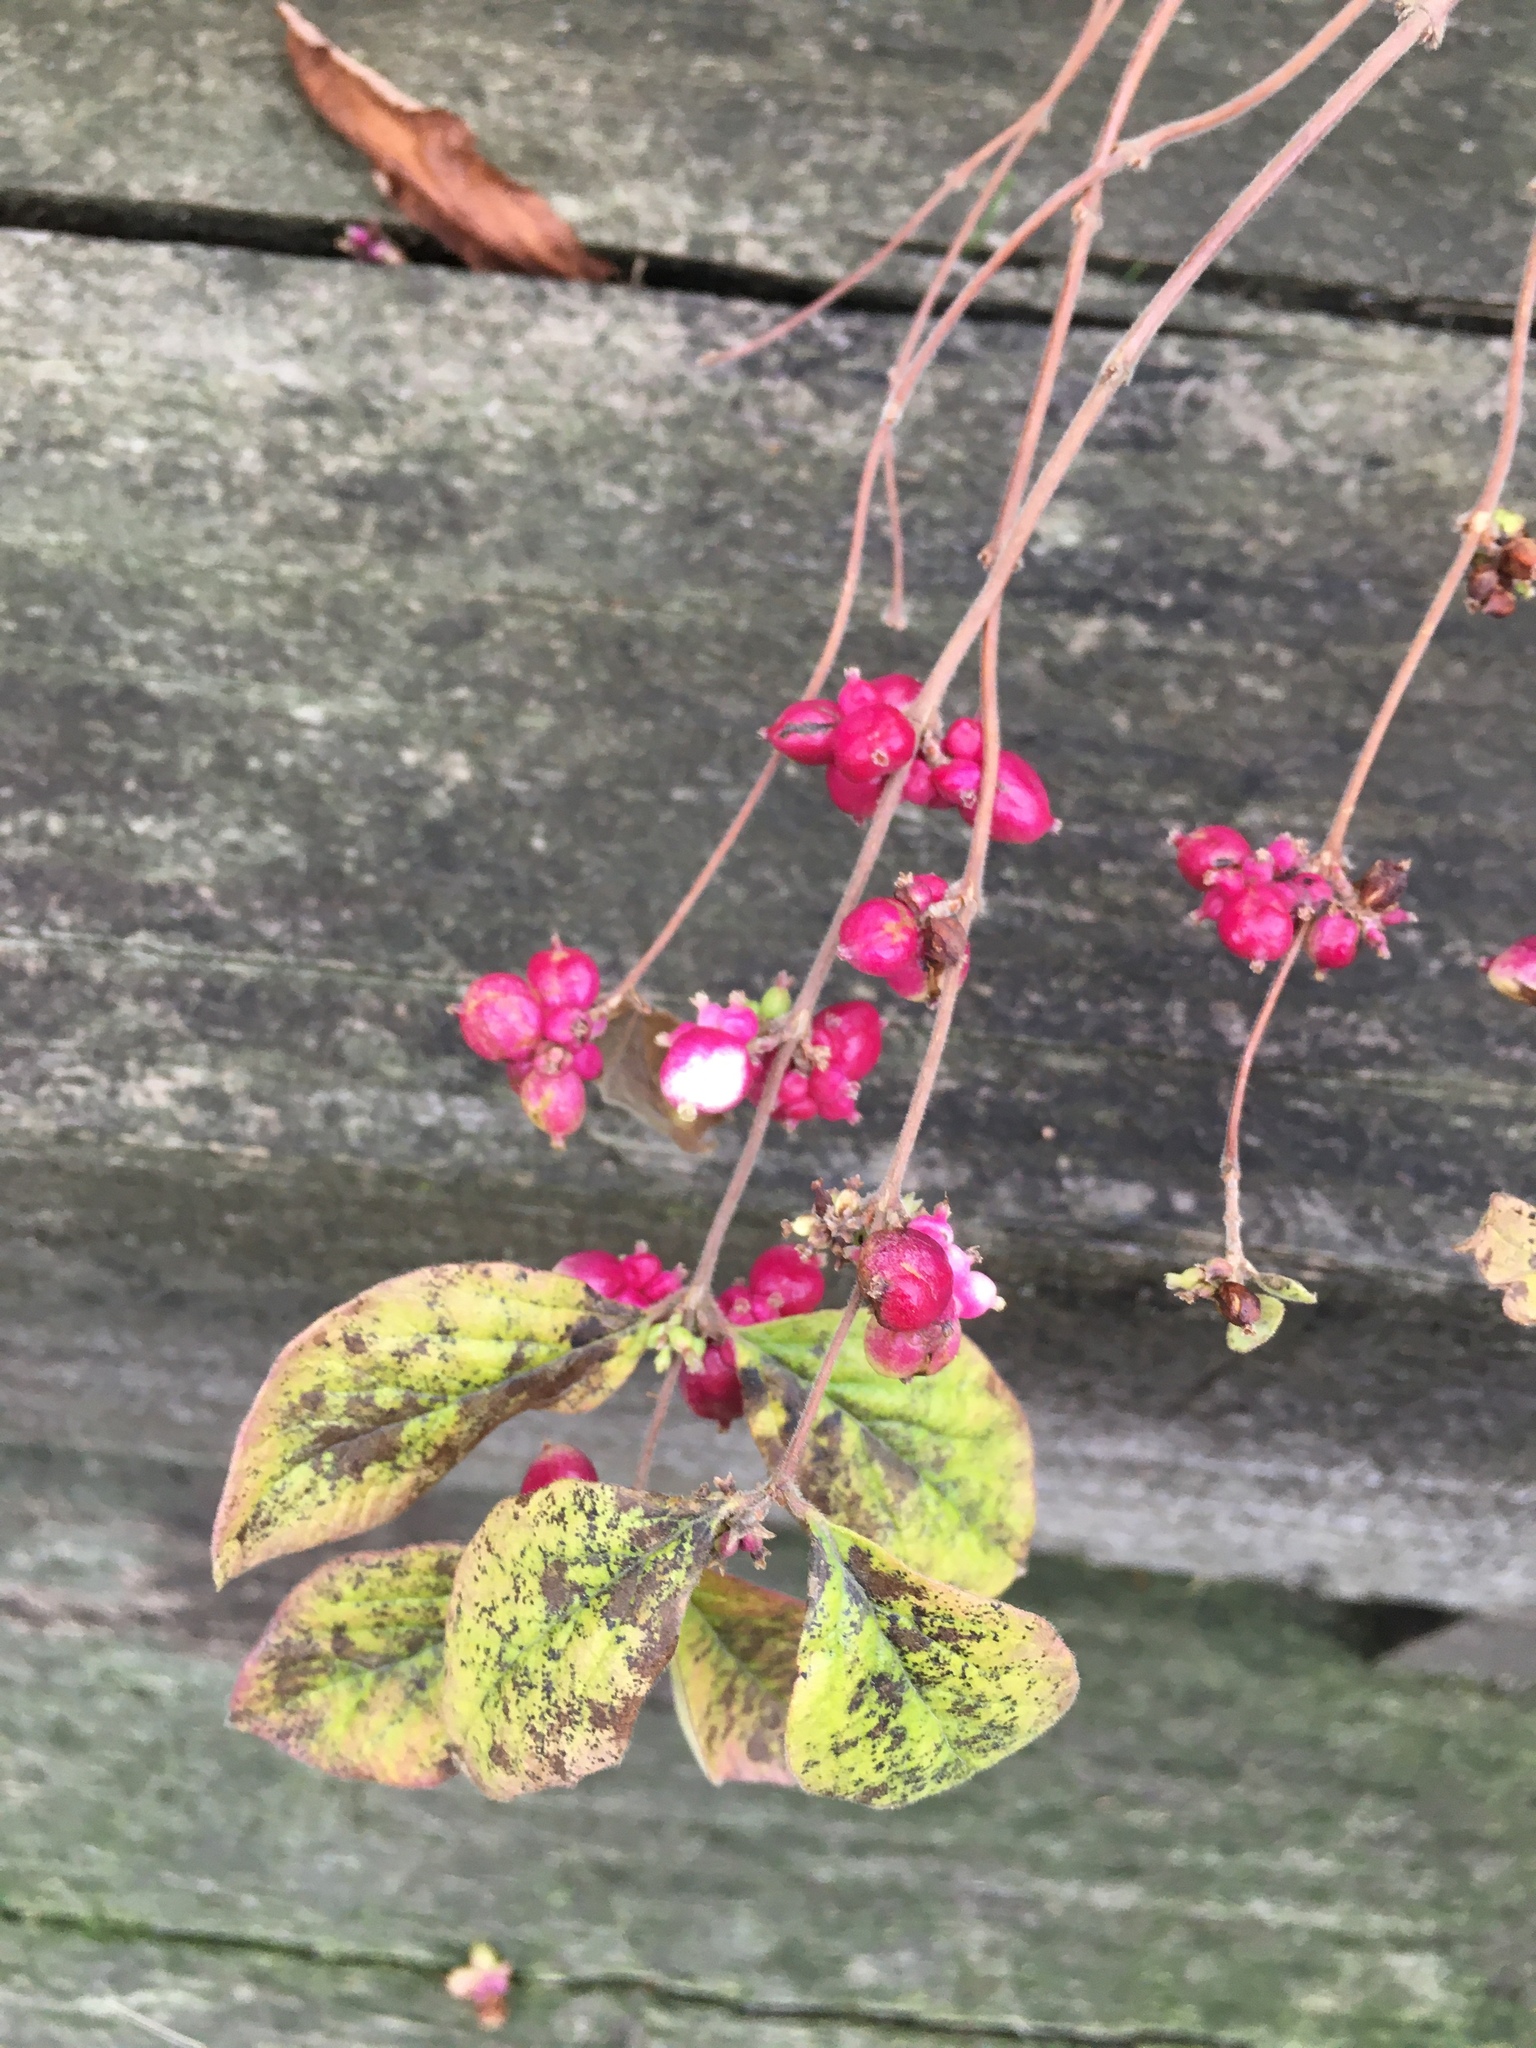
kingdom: Plantae
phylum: Tracheophyta
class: Magnoliopsida
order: Dipsacales
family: Caprifoliaceae
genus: Symphoricarpos
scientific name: Symphoricarpos orbiculatus
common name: Coralberry
